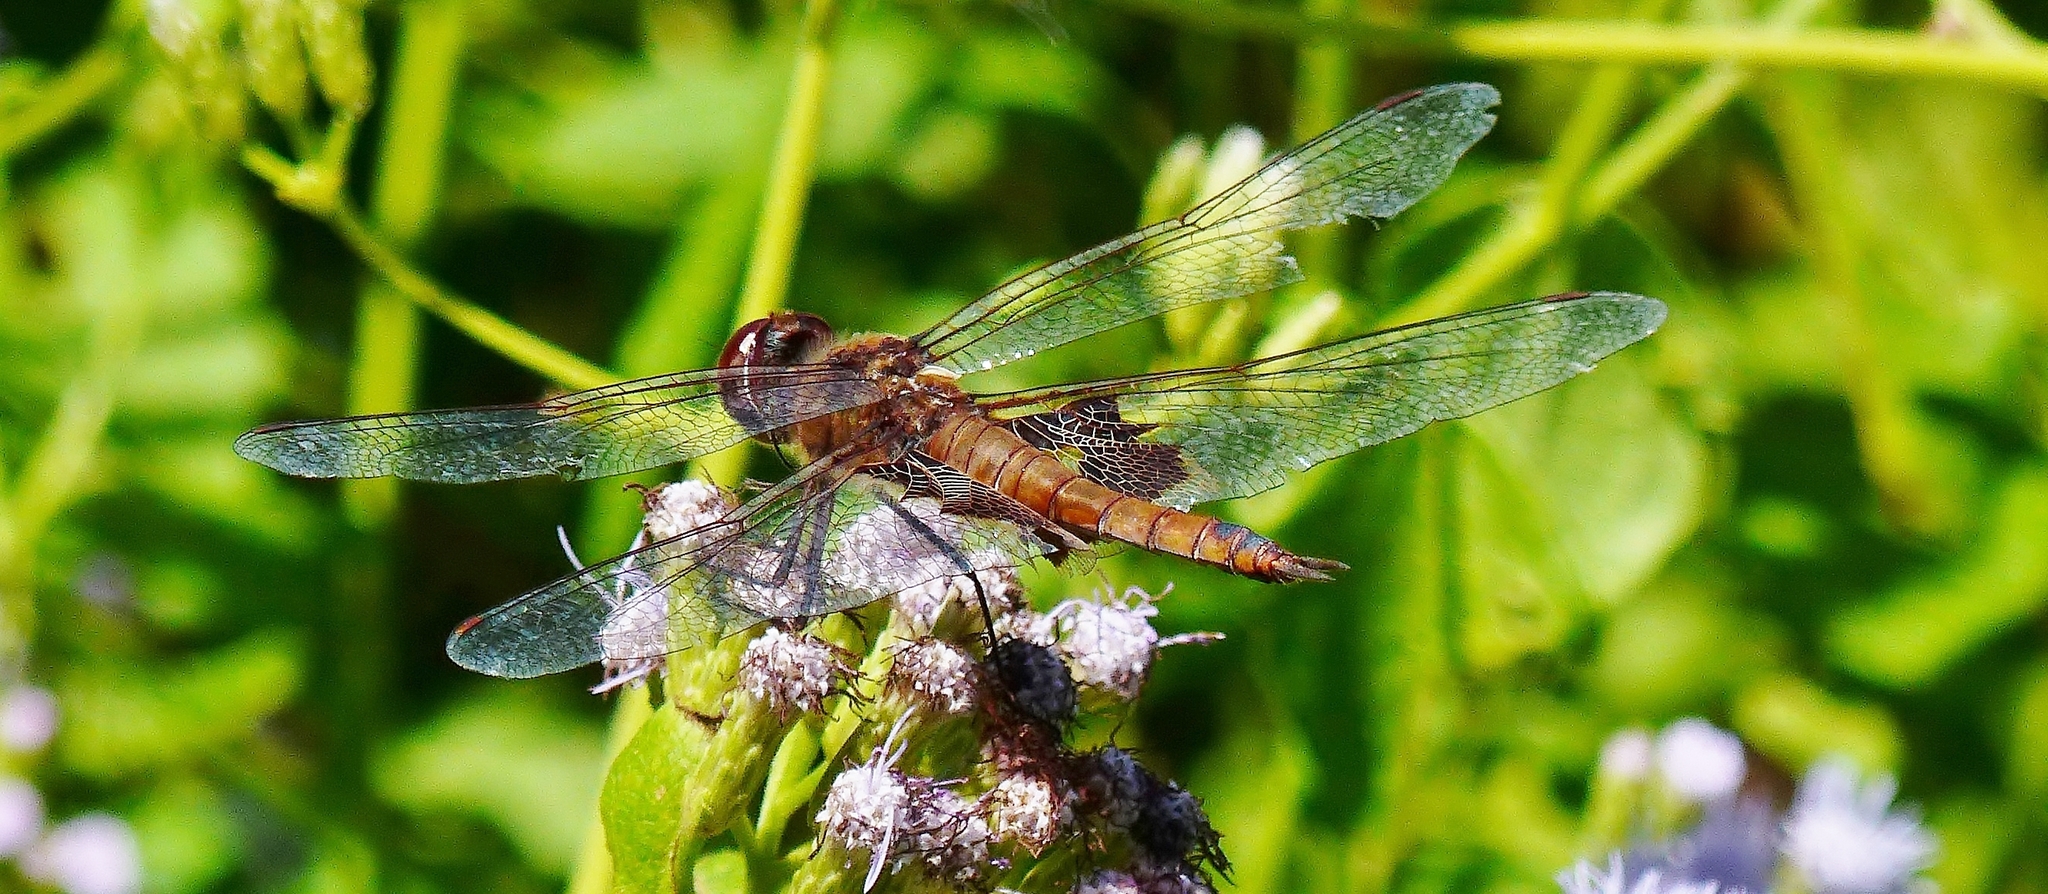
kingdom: Animalia
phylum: Arthropoda
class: Insecta
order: Odonata
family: Libellulidae
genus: Tramea
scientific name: Tramea onusta
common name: Red saddlebags
